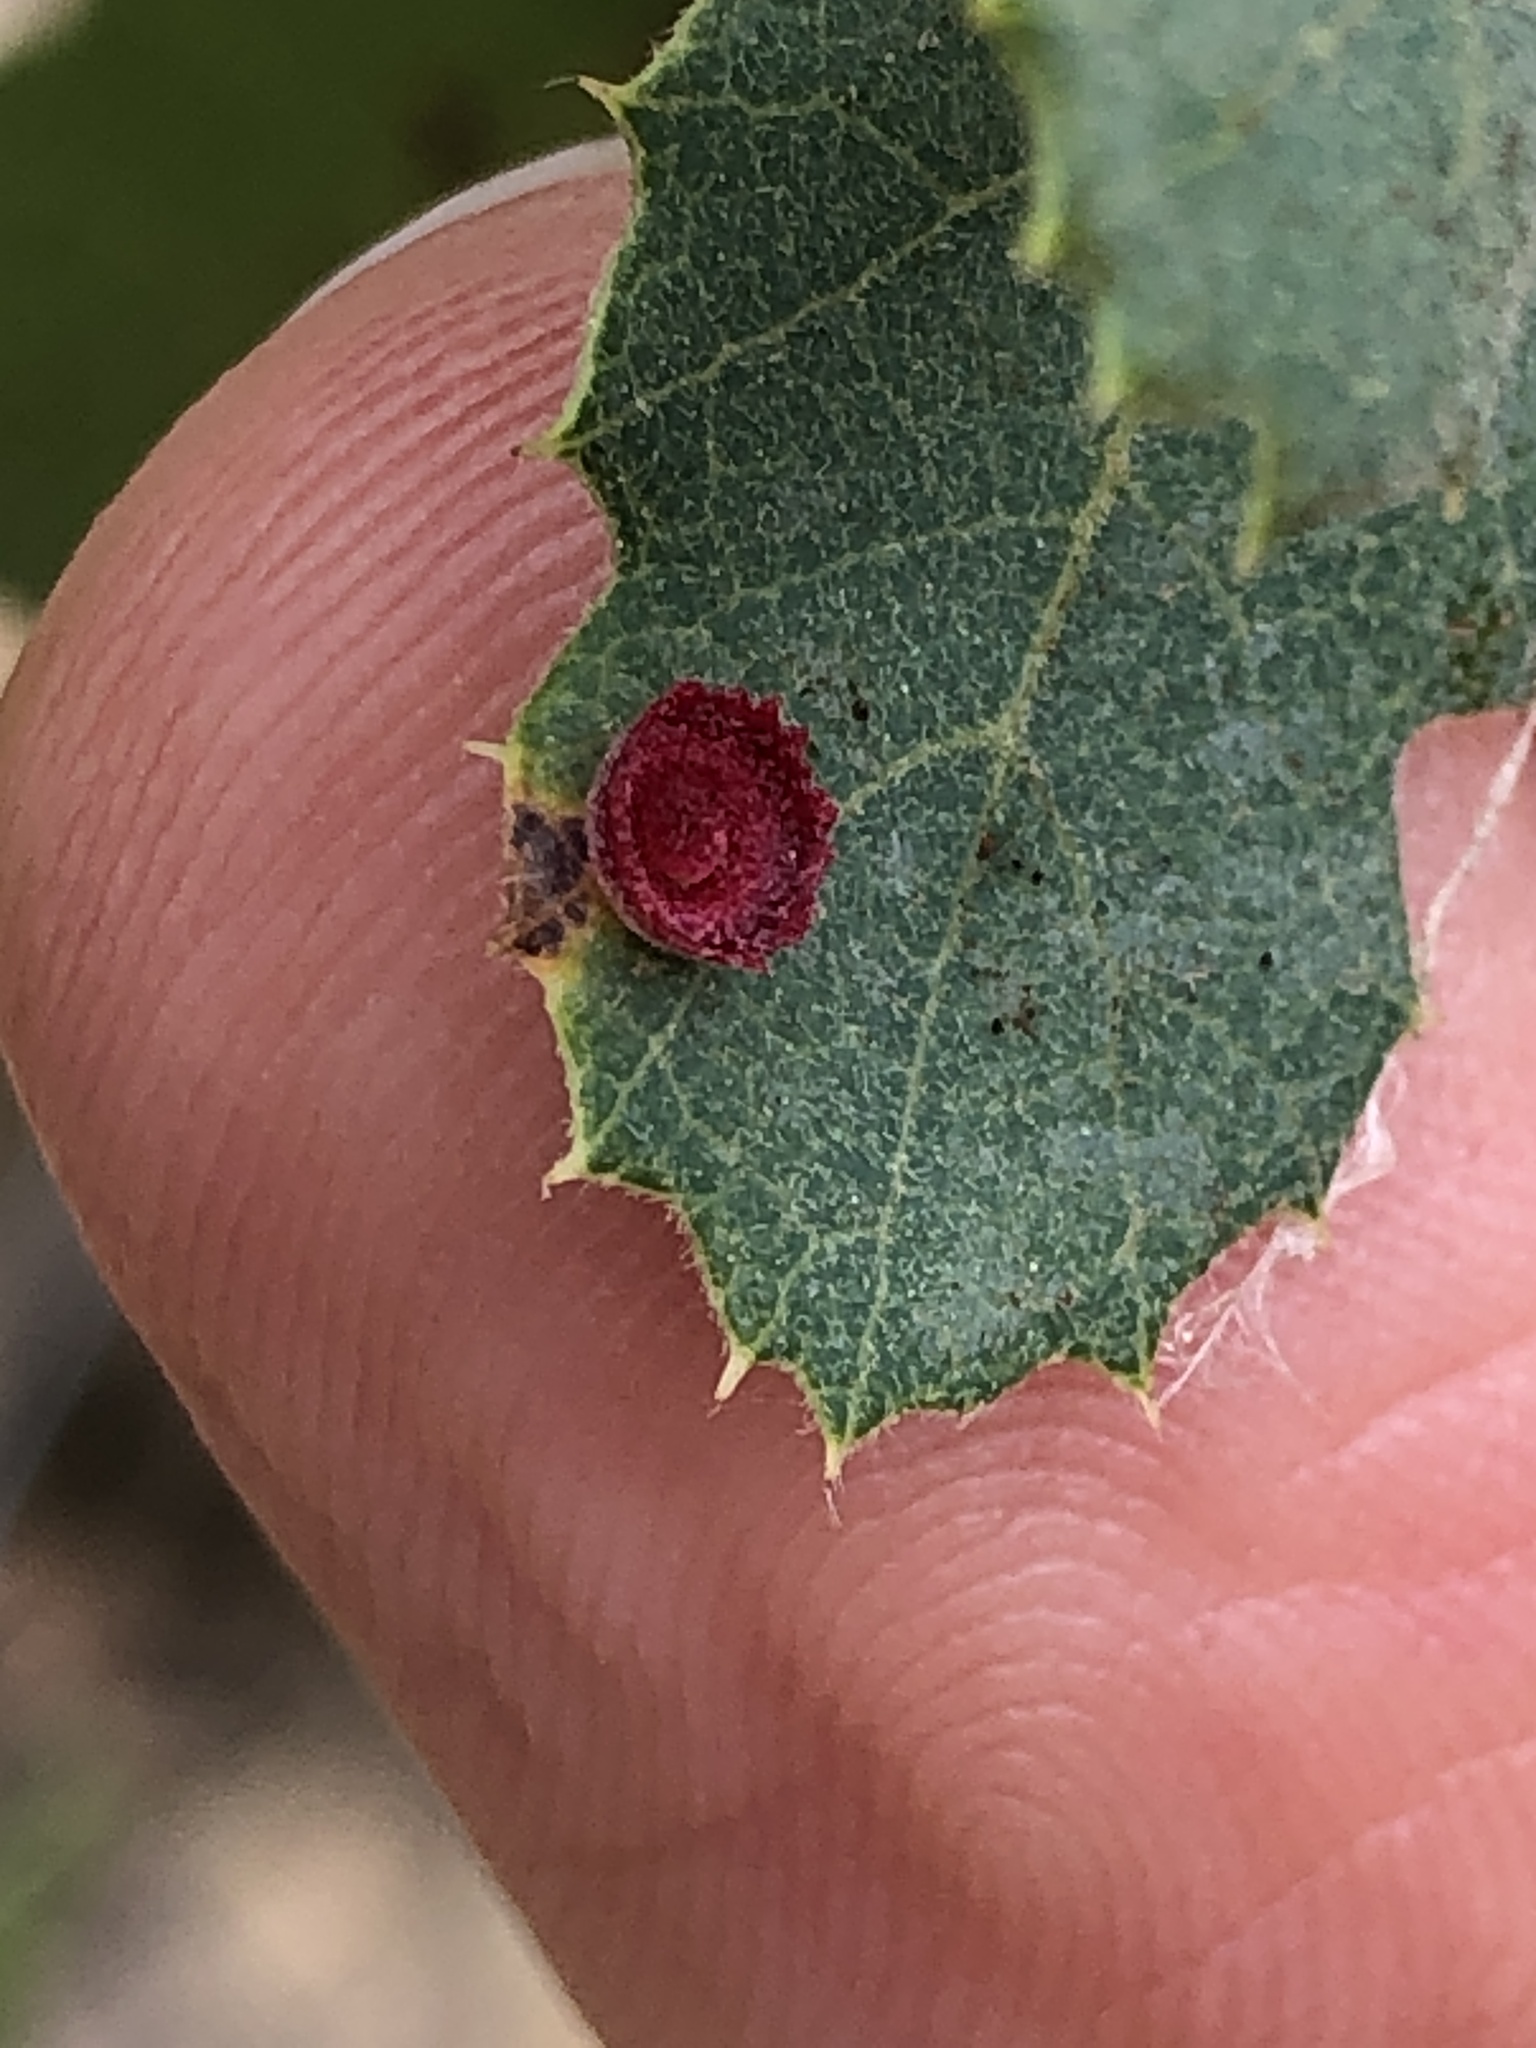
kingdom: Animalia
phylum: Arthropoda
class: Insecta
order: Hymenoptera
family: Cynipidae
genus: Andricus
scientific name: Andricus
